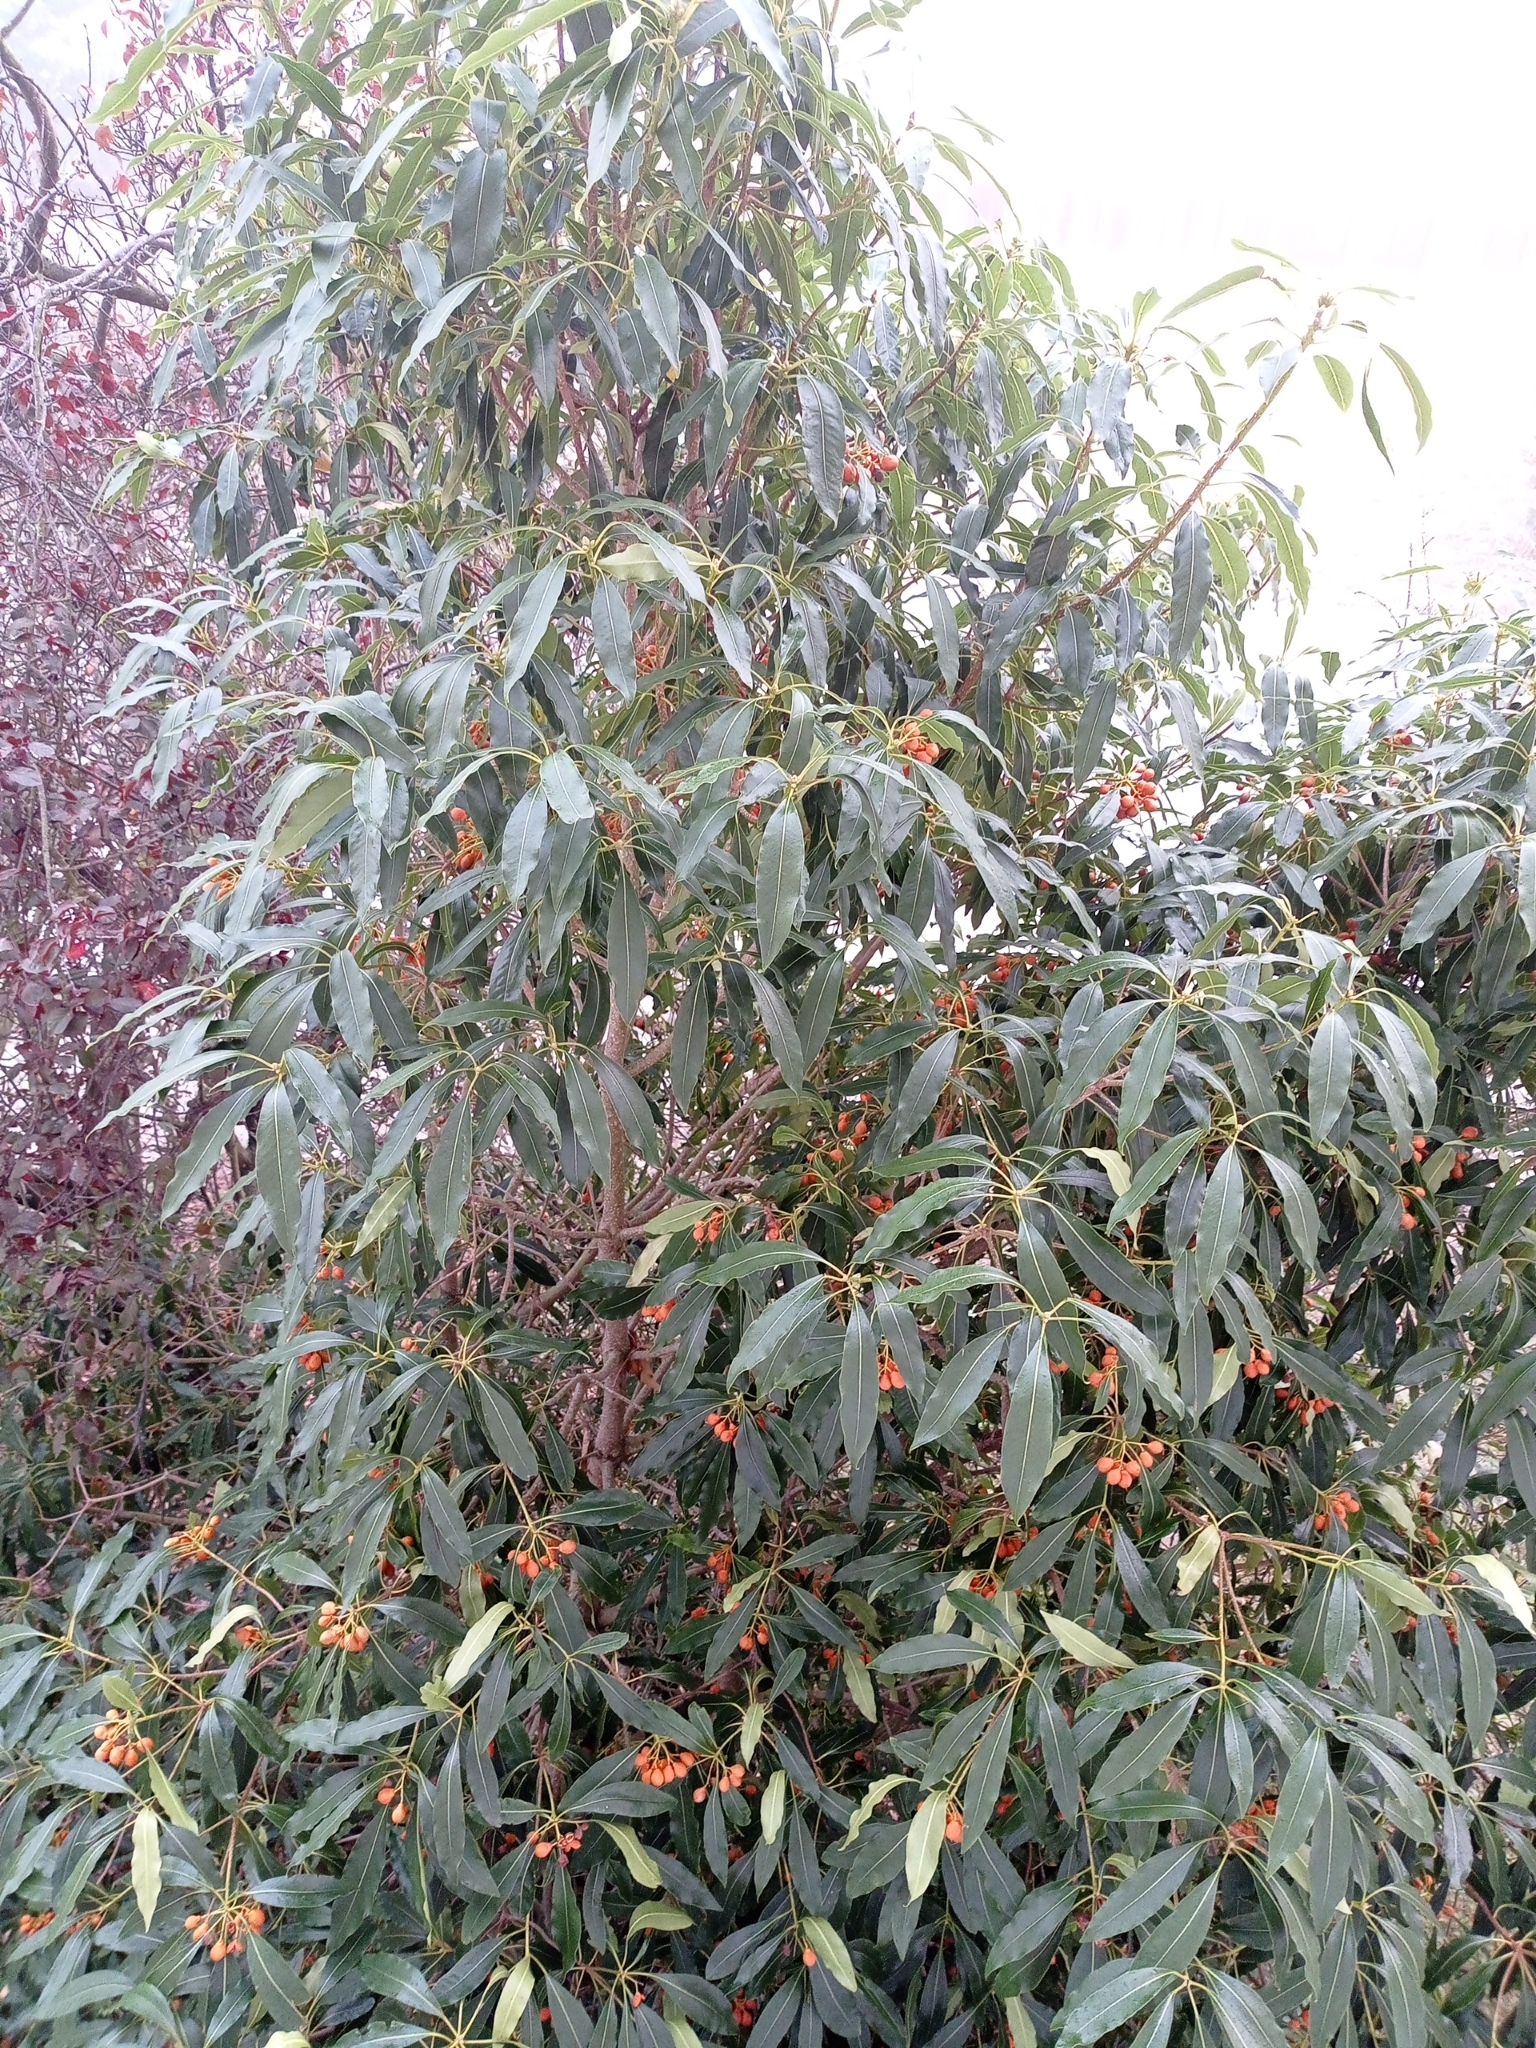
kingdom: Plantae
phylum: Tracheophyta
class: Magnoliopsida
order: Apiales
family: Pittosporaceae
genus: Pittosporum
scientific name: Pittosporum undulatum
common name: Australian cheesewood
